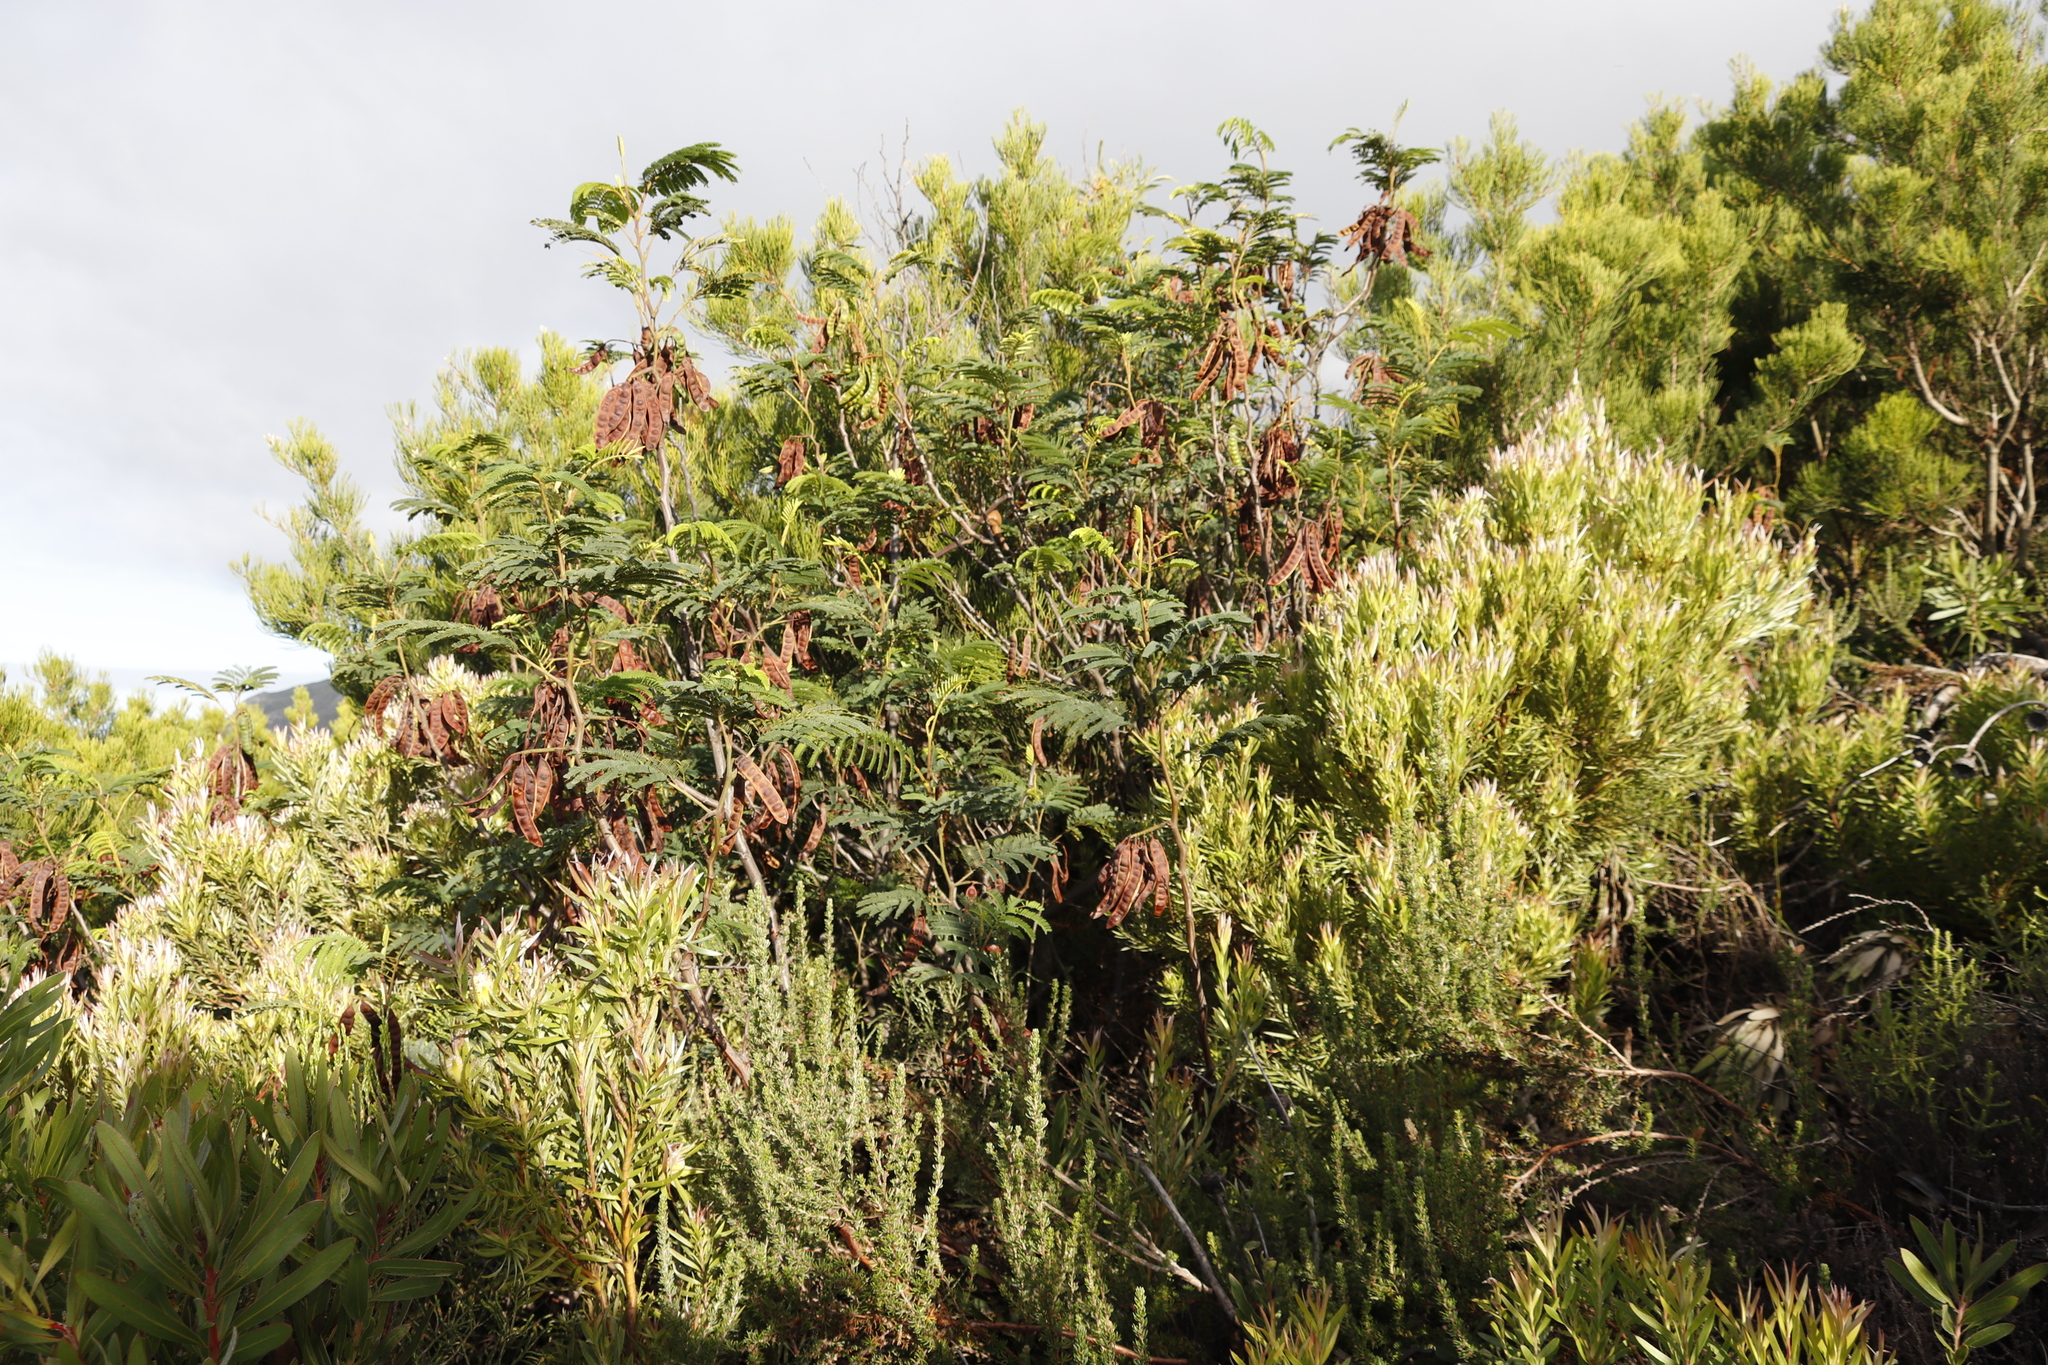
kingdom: Plantae
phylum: Tracheophyta
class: Magnoliopsida
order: Fabales
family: Fabaceae
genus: Paraserianthes
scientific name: Paraserianthes lophantha
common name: Plume albizia
